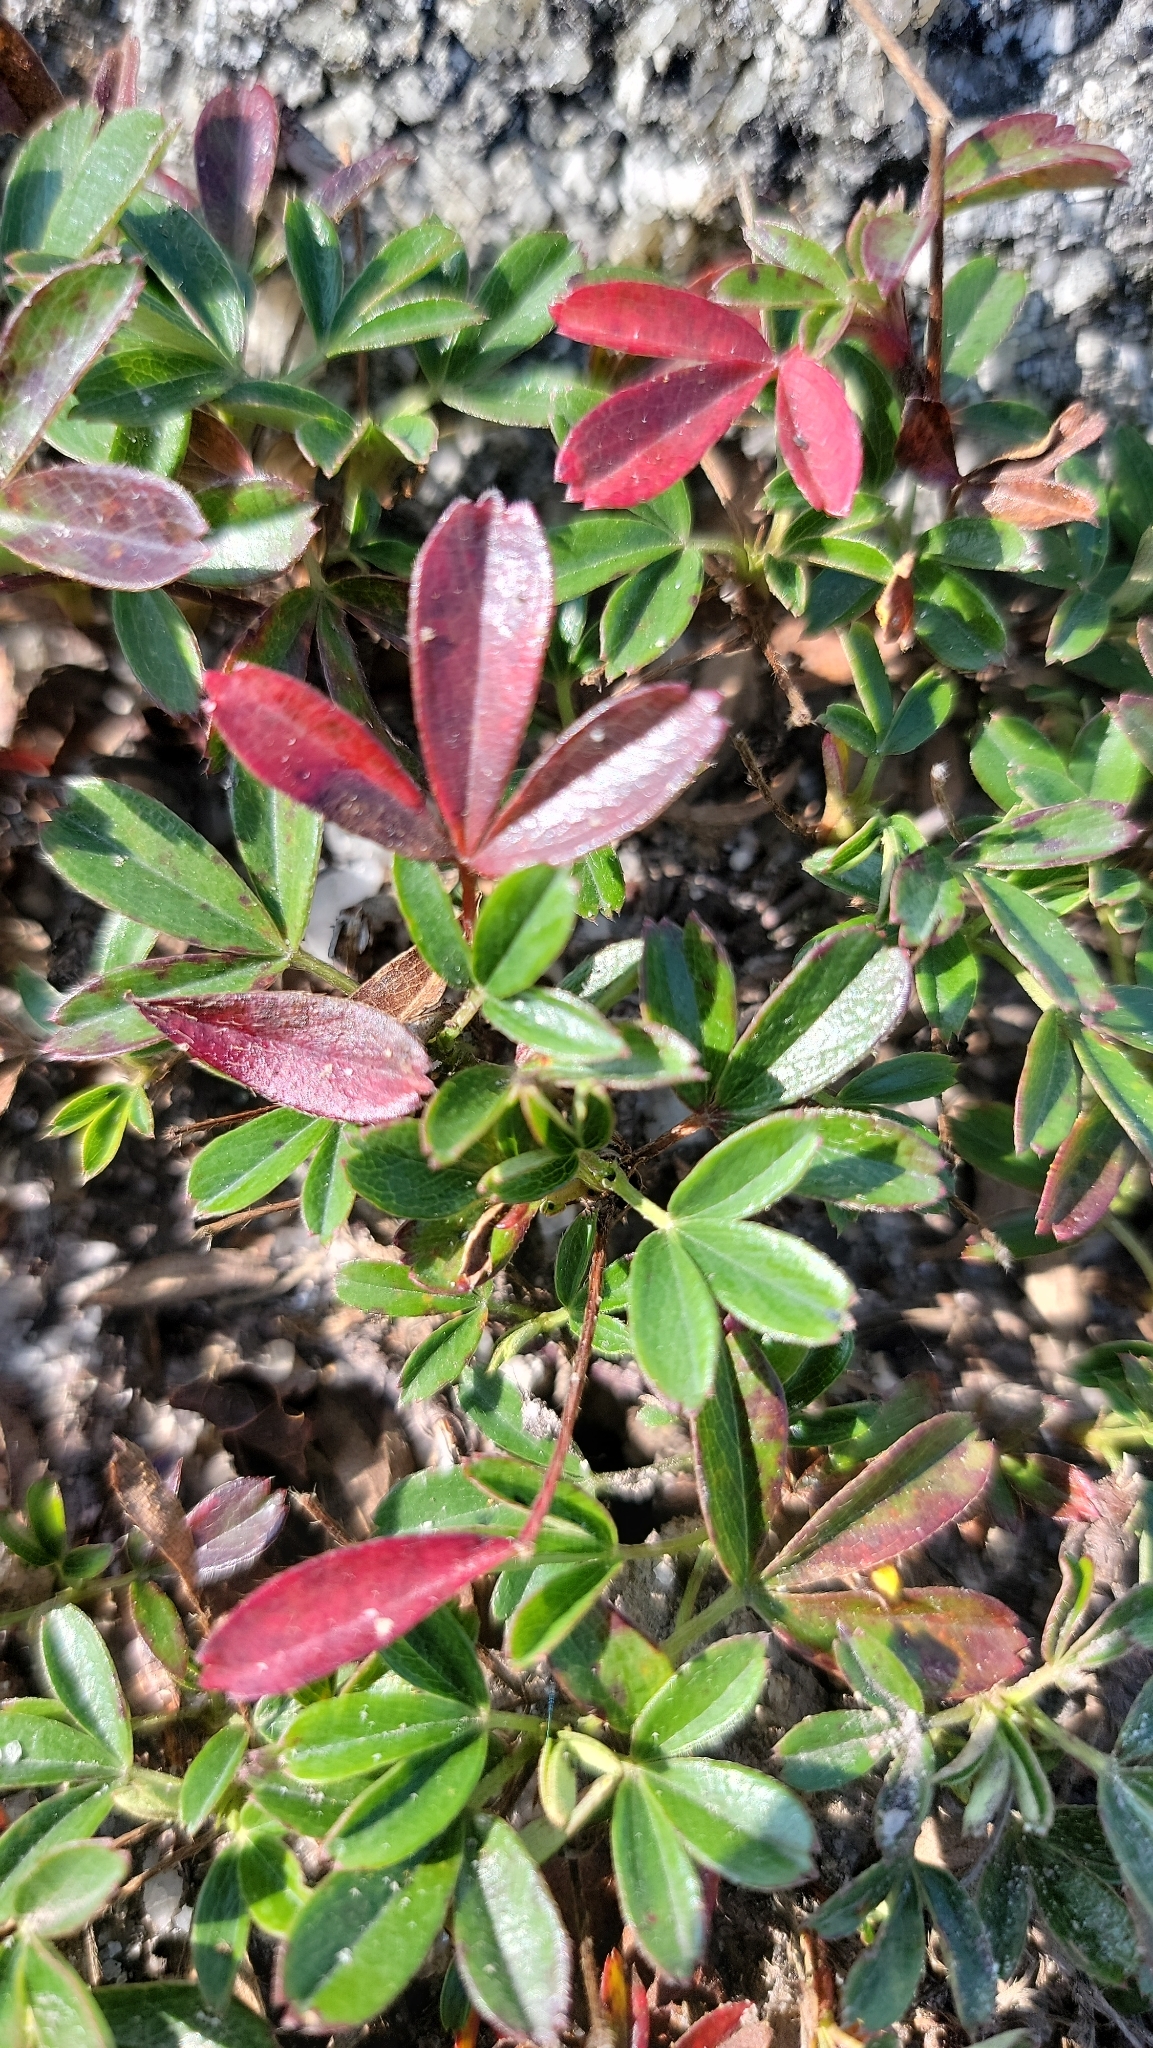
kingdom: Plantae
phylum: Tracheophyta
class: Magnoliopsida
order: Rosales
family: Rosaceae
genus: Sibbaldia
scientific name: Sibbaldia tridentata
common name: Three-toothed cinquefoil
